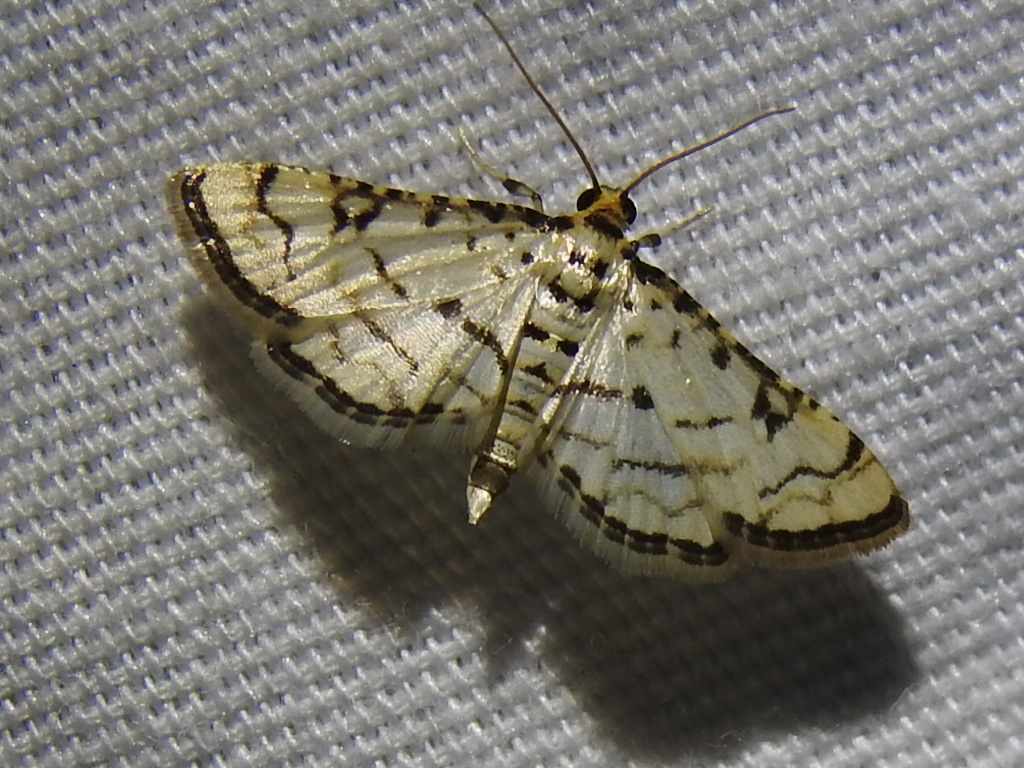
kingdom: Animalia
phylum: Arthropoda
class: Insecta
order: Lepidoptera
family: Crambidae
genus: Hileithia
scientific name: Hileithia rehamalis
